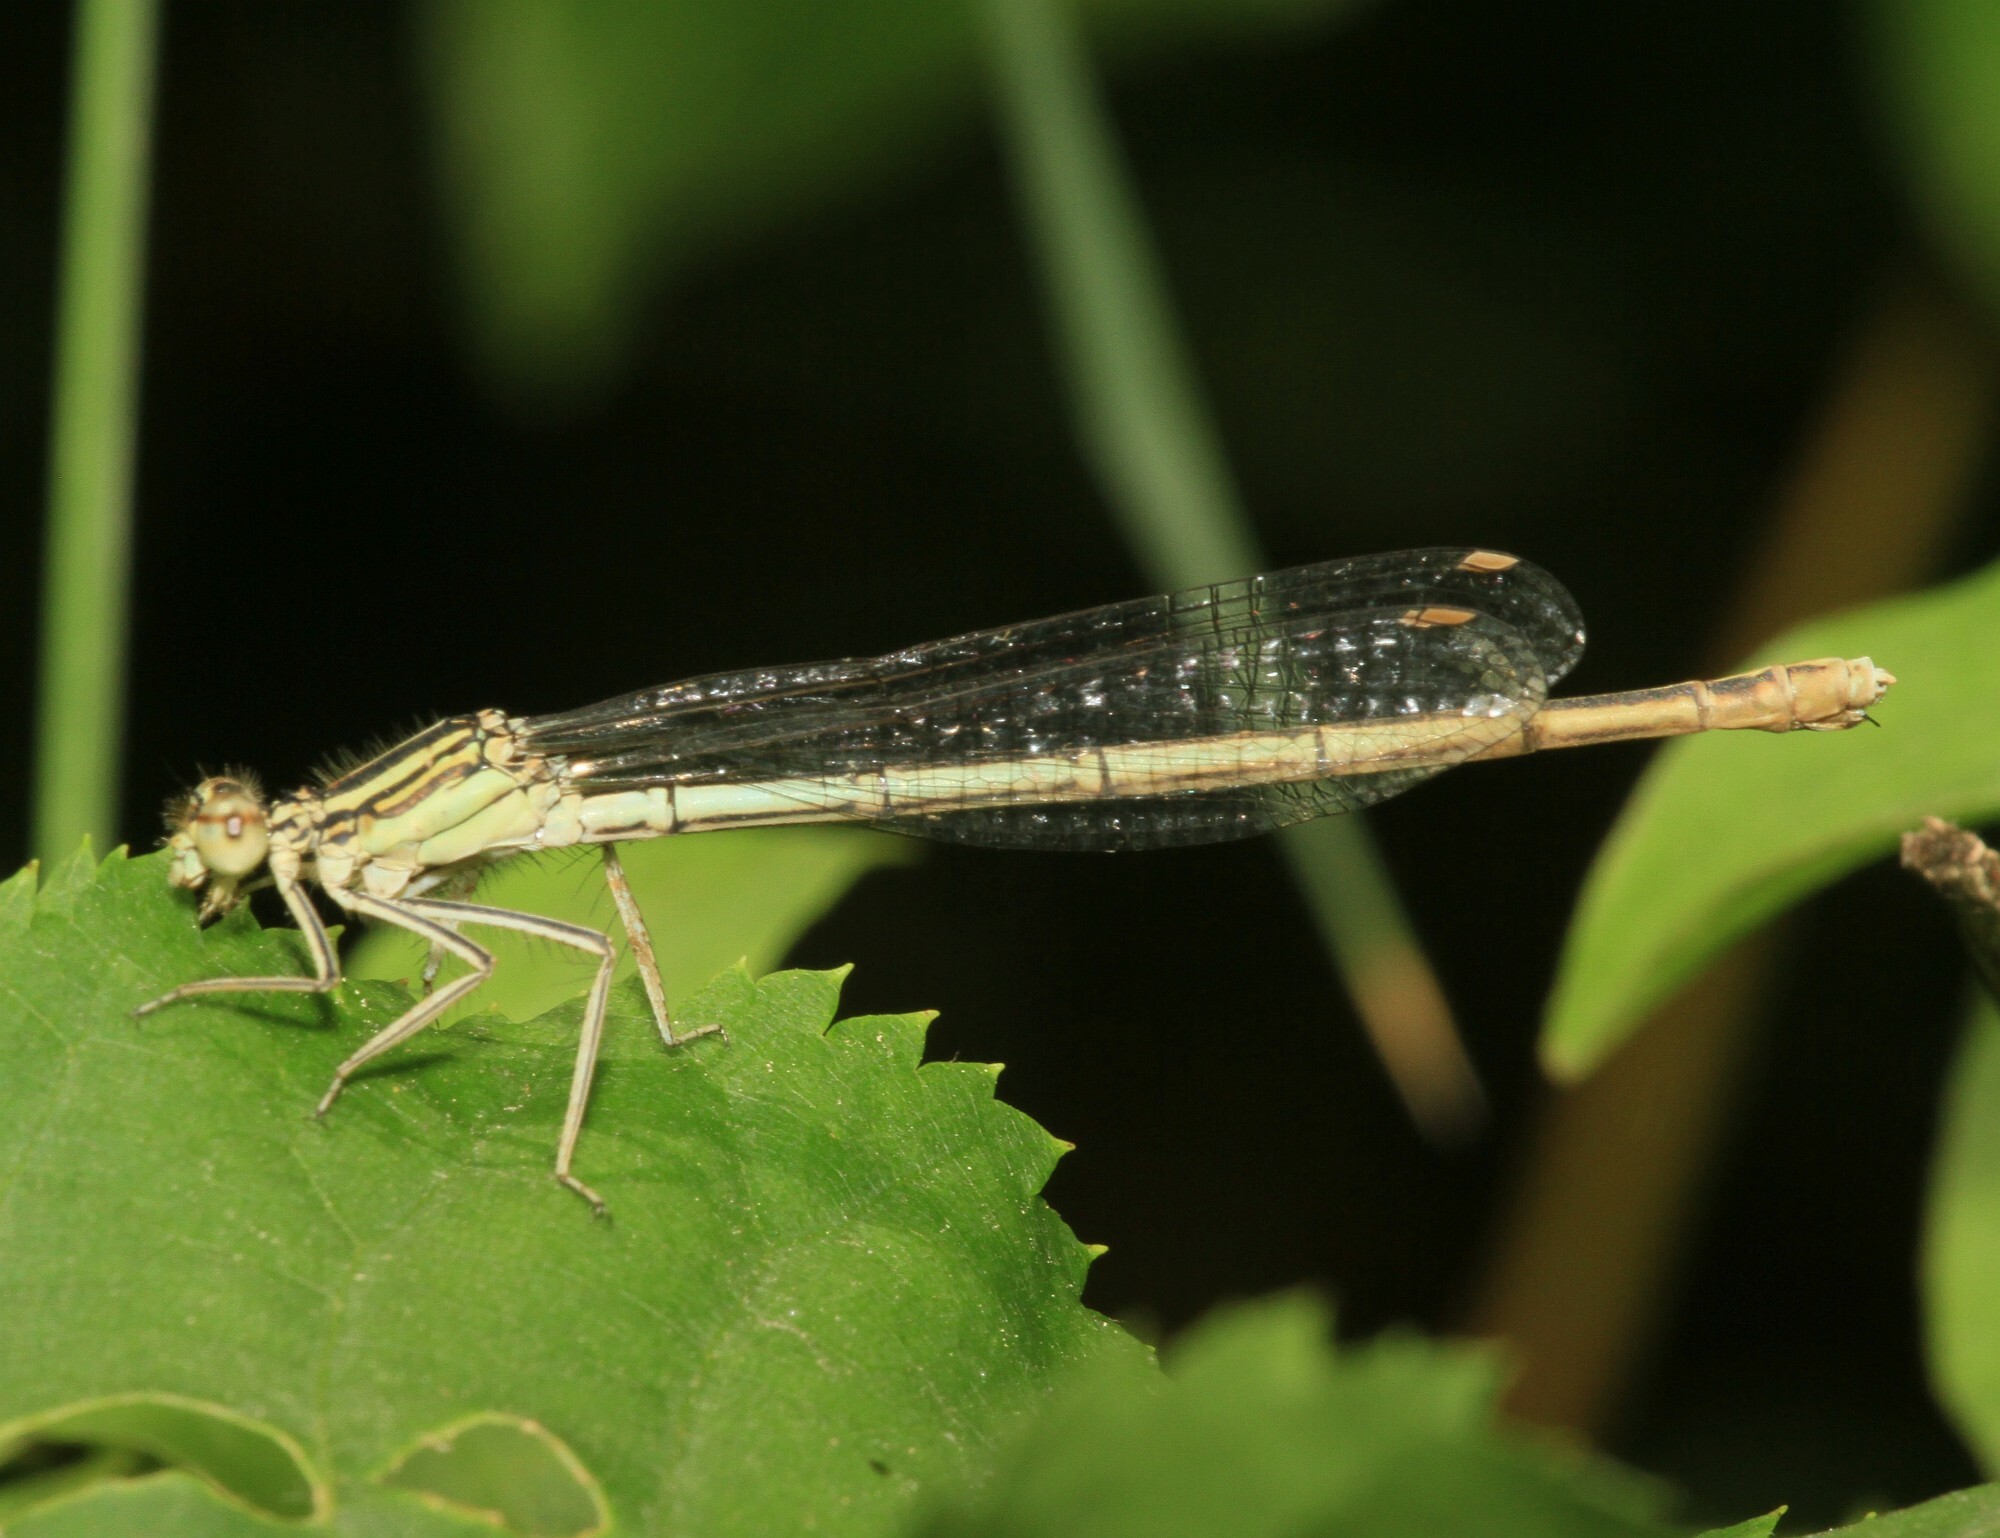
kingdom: Animalia
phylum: Arthropoda
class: Insecta
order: Odonata
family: Platycnemididae
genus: Platycnemis
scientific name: Platycnemis pennipes
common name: White-legged damselfly
